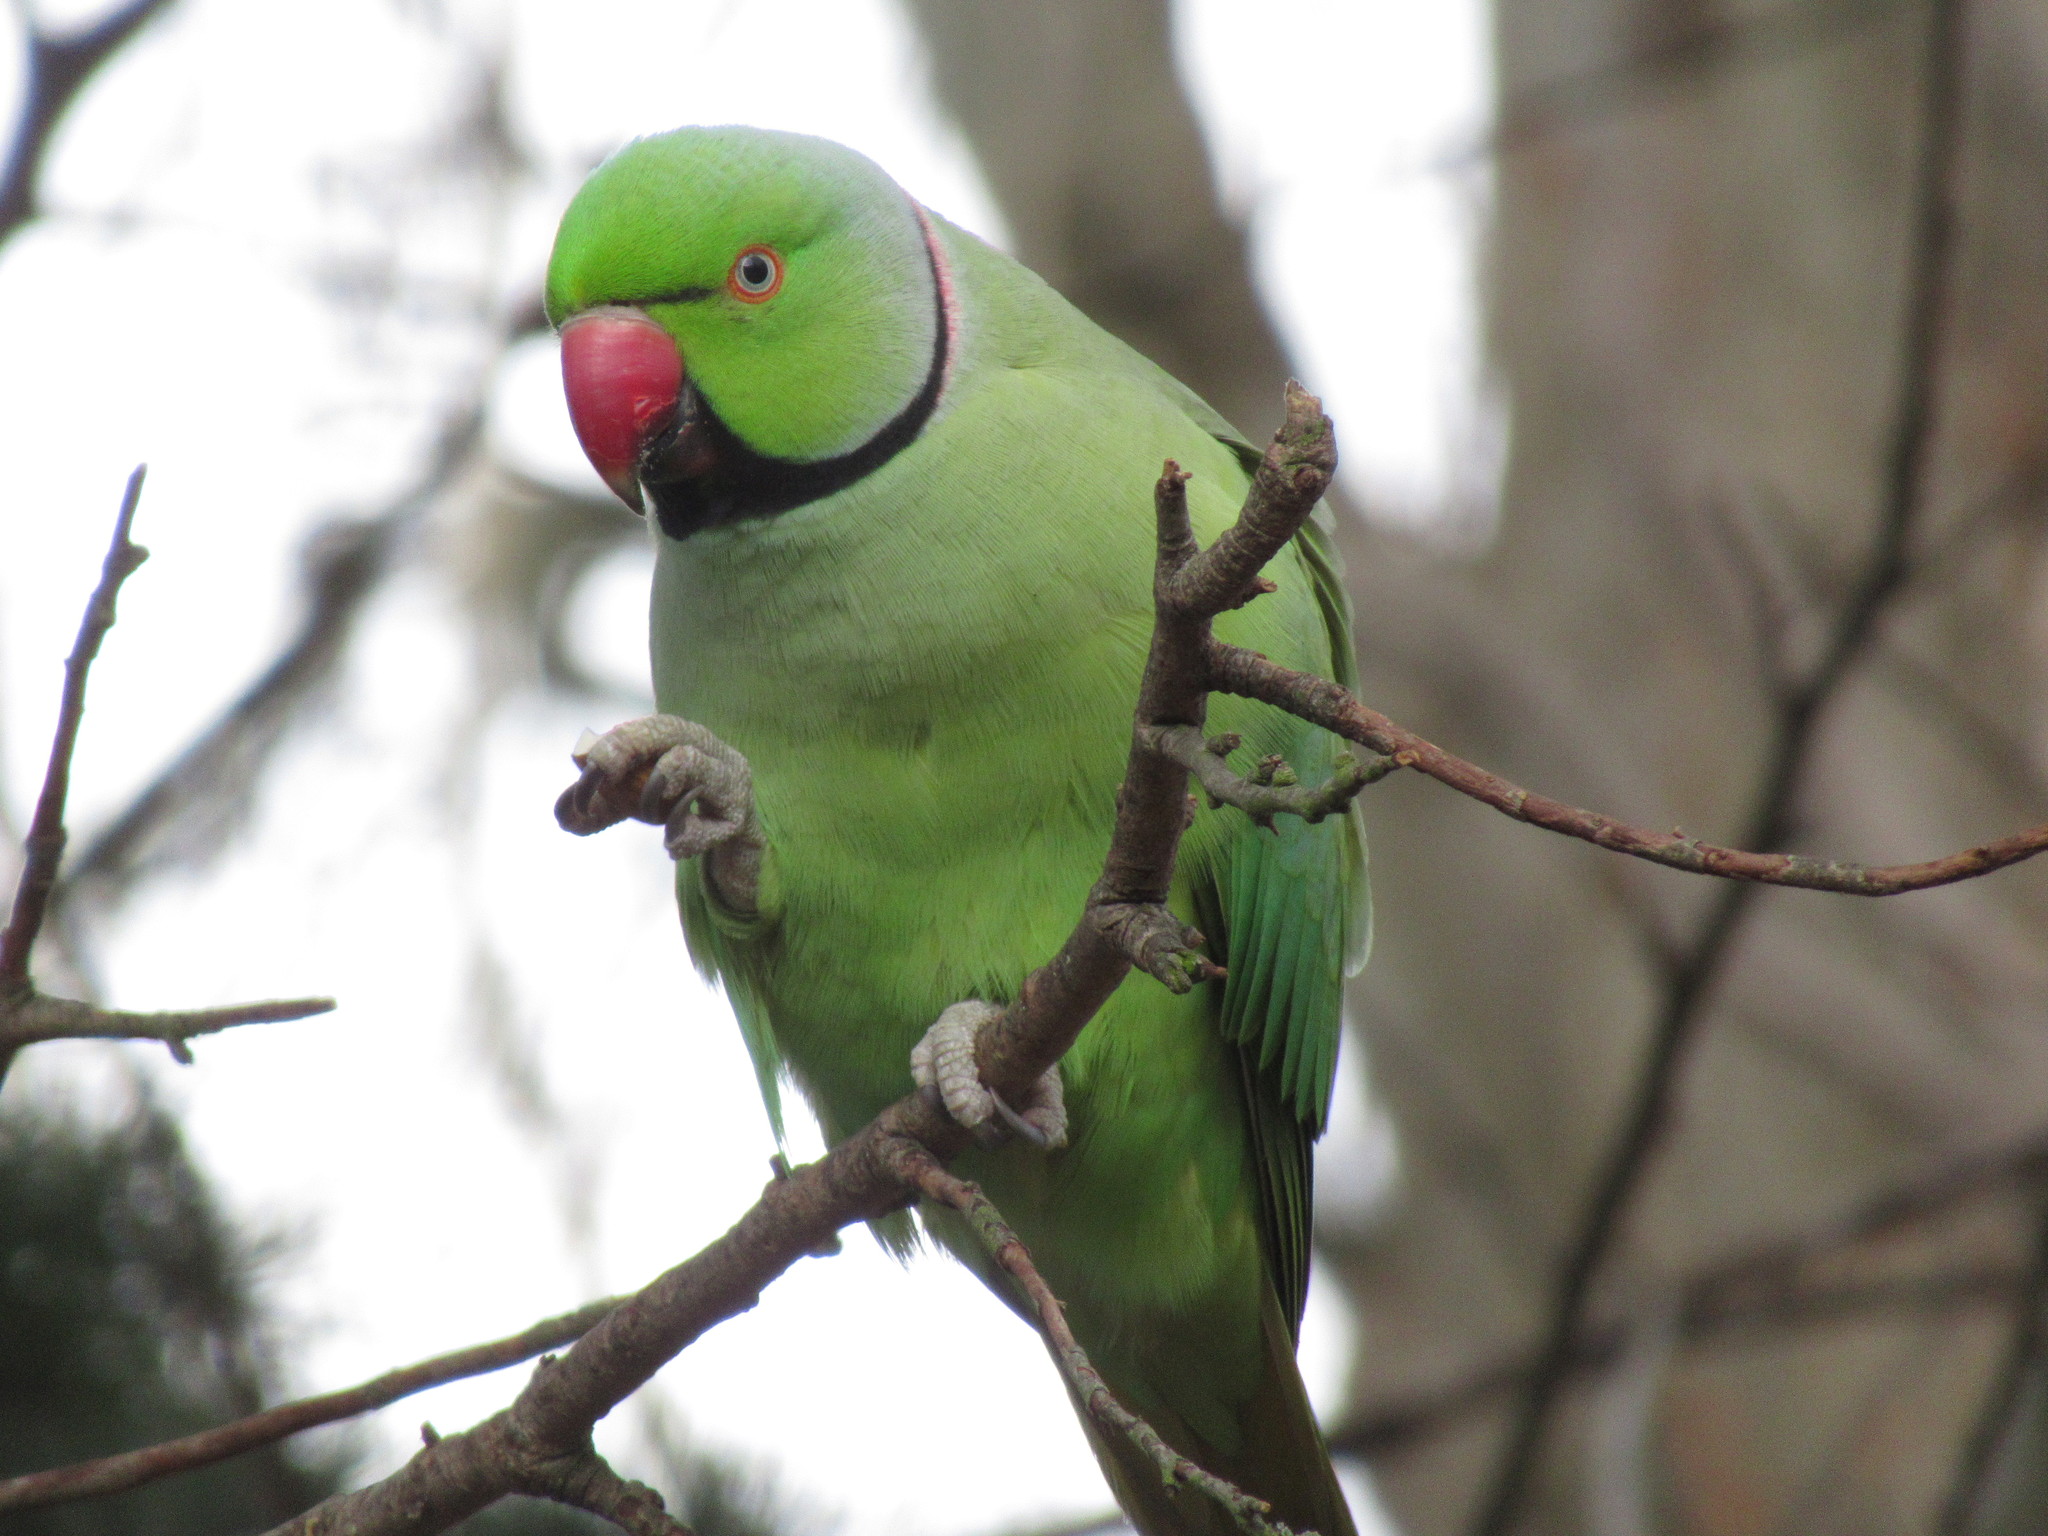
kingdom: Animalia
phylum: Chordata
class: Aves
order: Psittaciformes
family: Psittacidae
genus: Psittacula
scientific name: Psittacula krameri
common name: Rose-ringed parakeet
